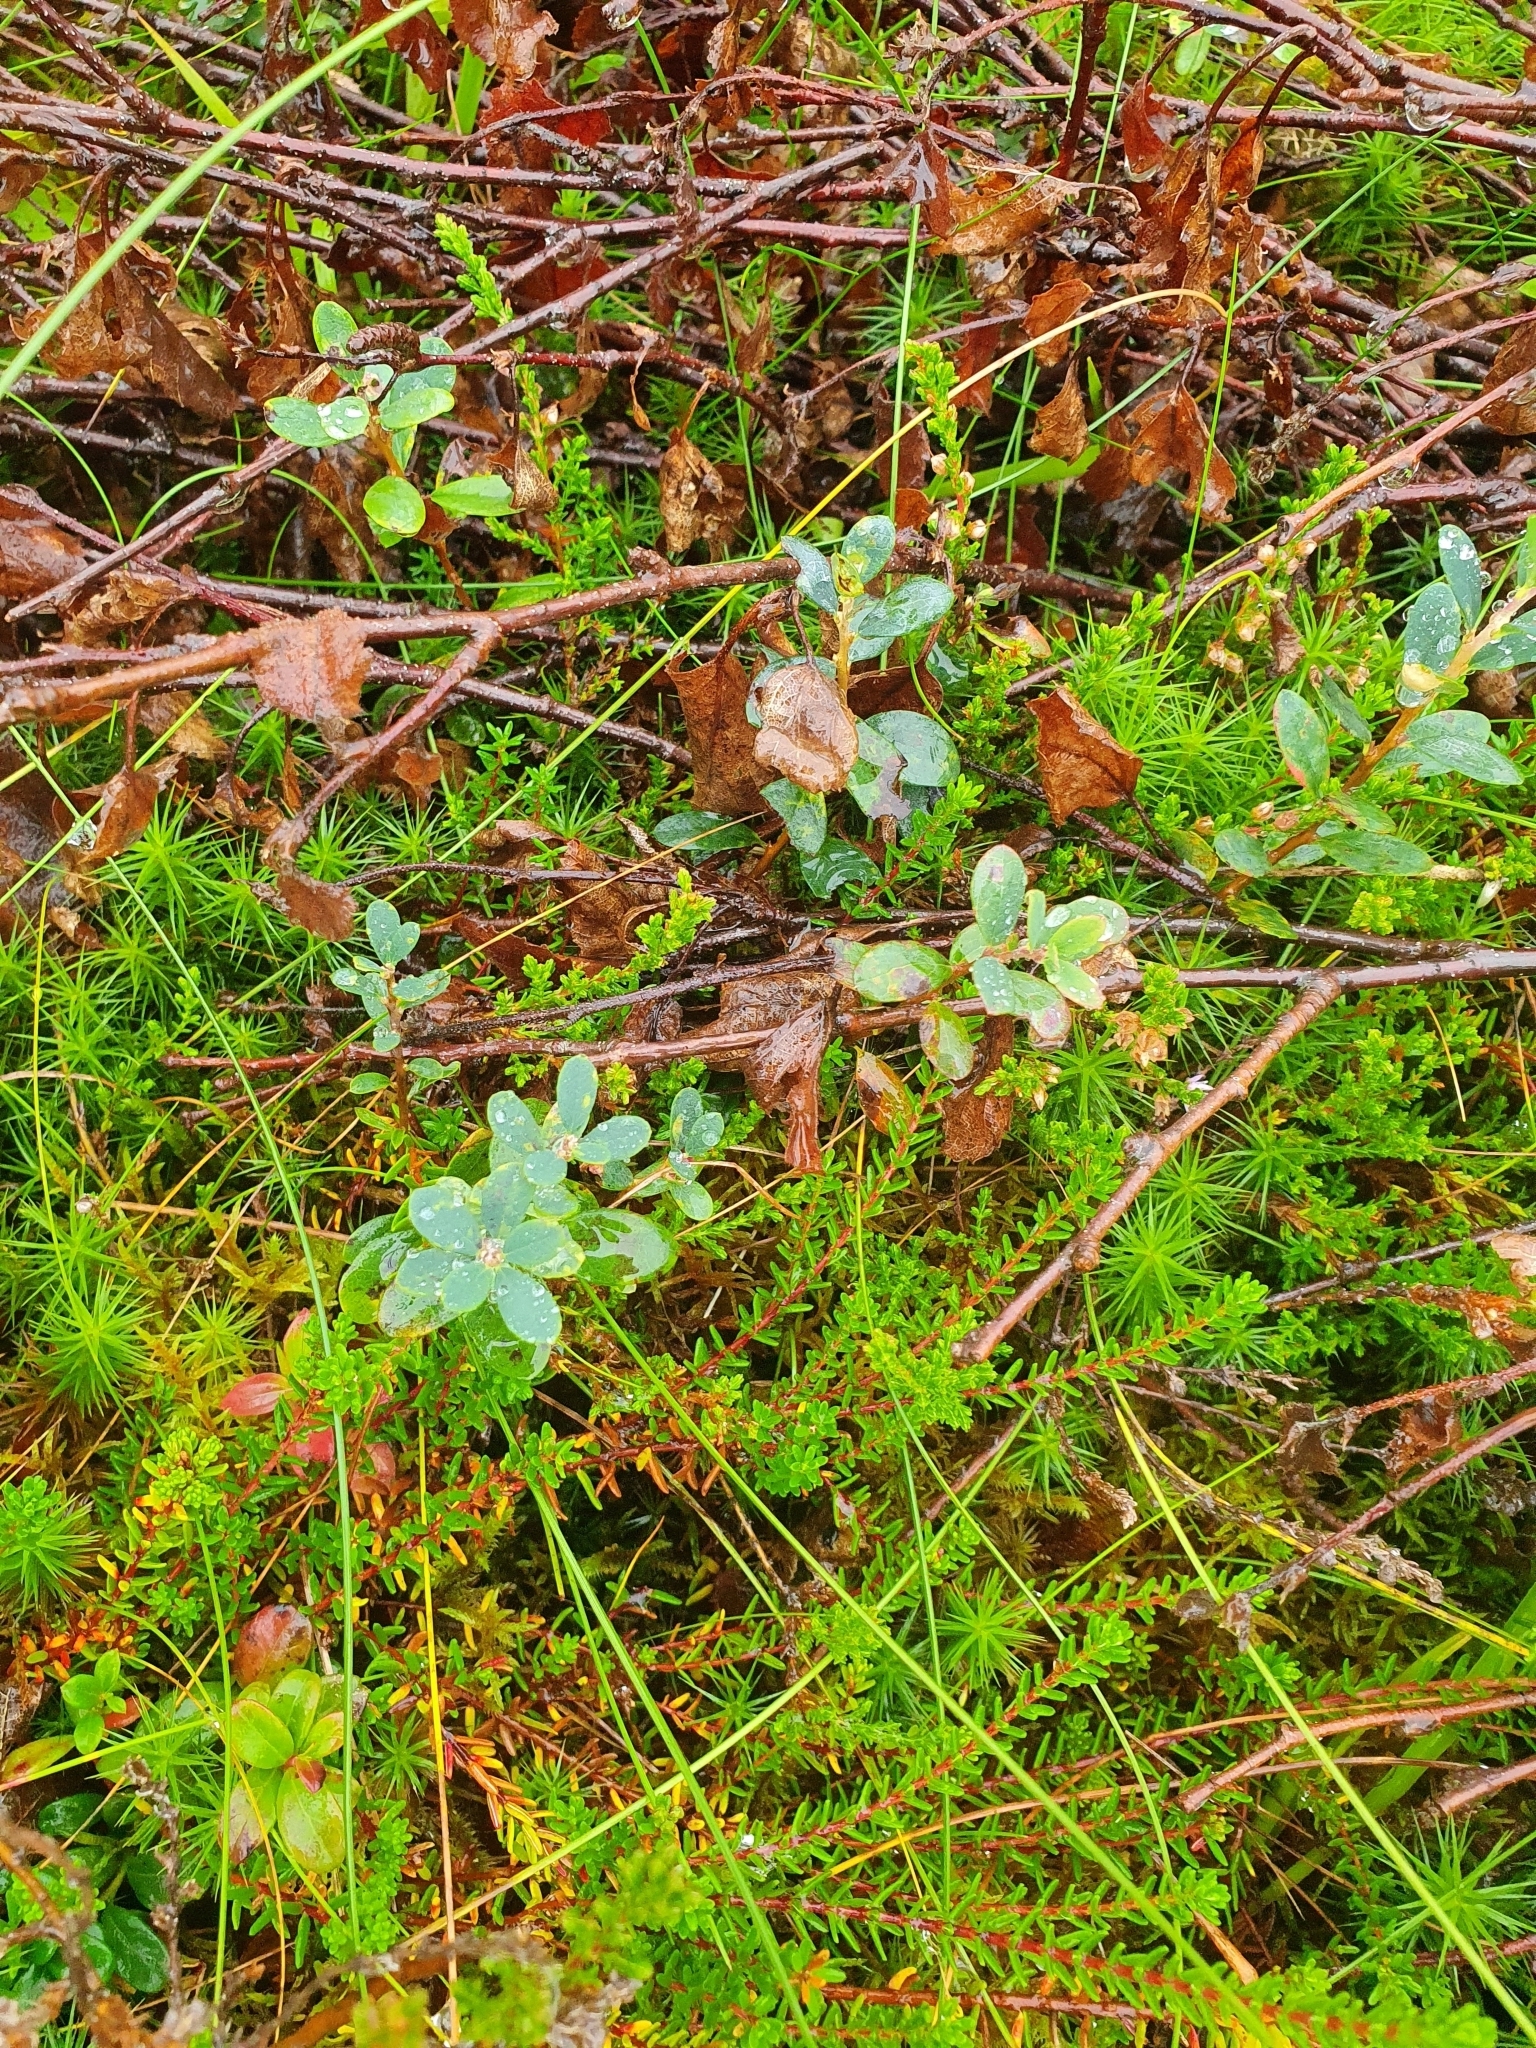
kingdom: Plantae
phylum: Tracheophyta
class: Magnoliopsida
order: Ericales
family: Ericaceae
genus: Vaccinium
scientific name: Vaccinium uliginosum
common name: Bog bilberry
